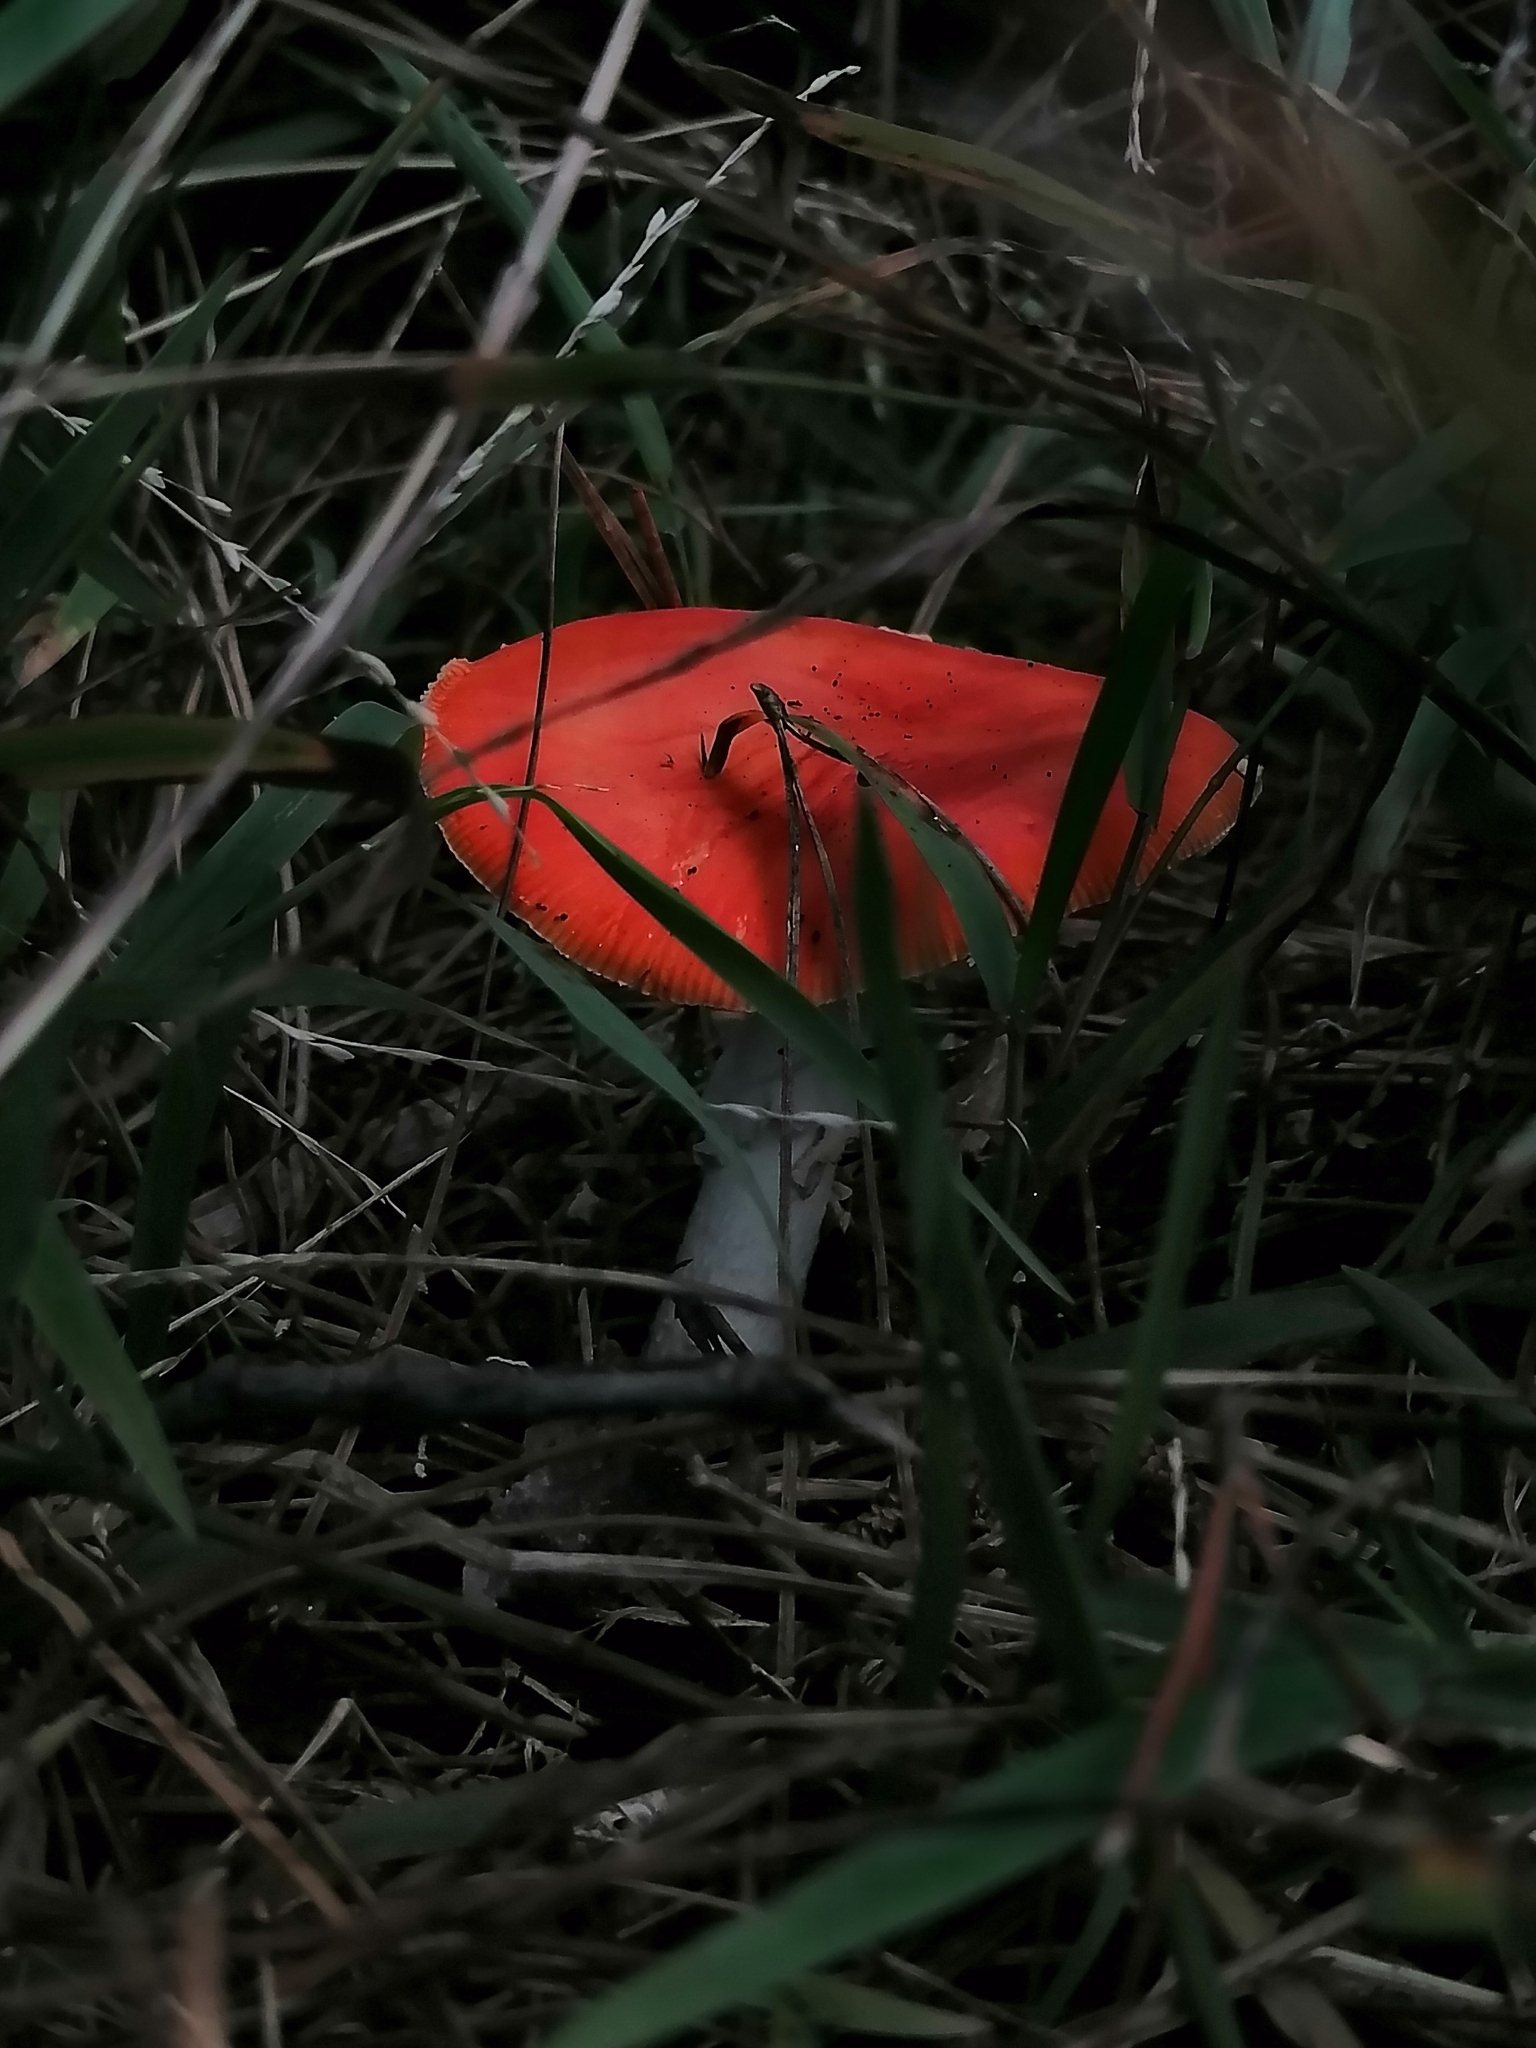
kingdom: Fungi
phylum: Basidiomycota
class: Agaricomycetes
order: Agaricales
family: Amanitaceae
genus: Amanita
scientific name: Amanita muscaria
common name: Fly agaric
